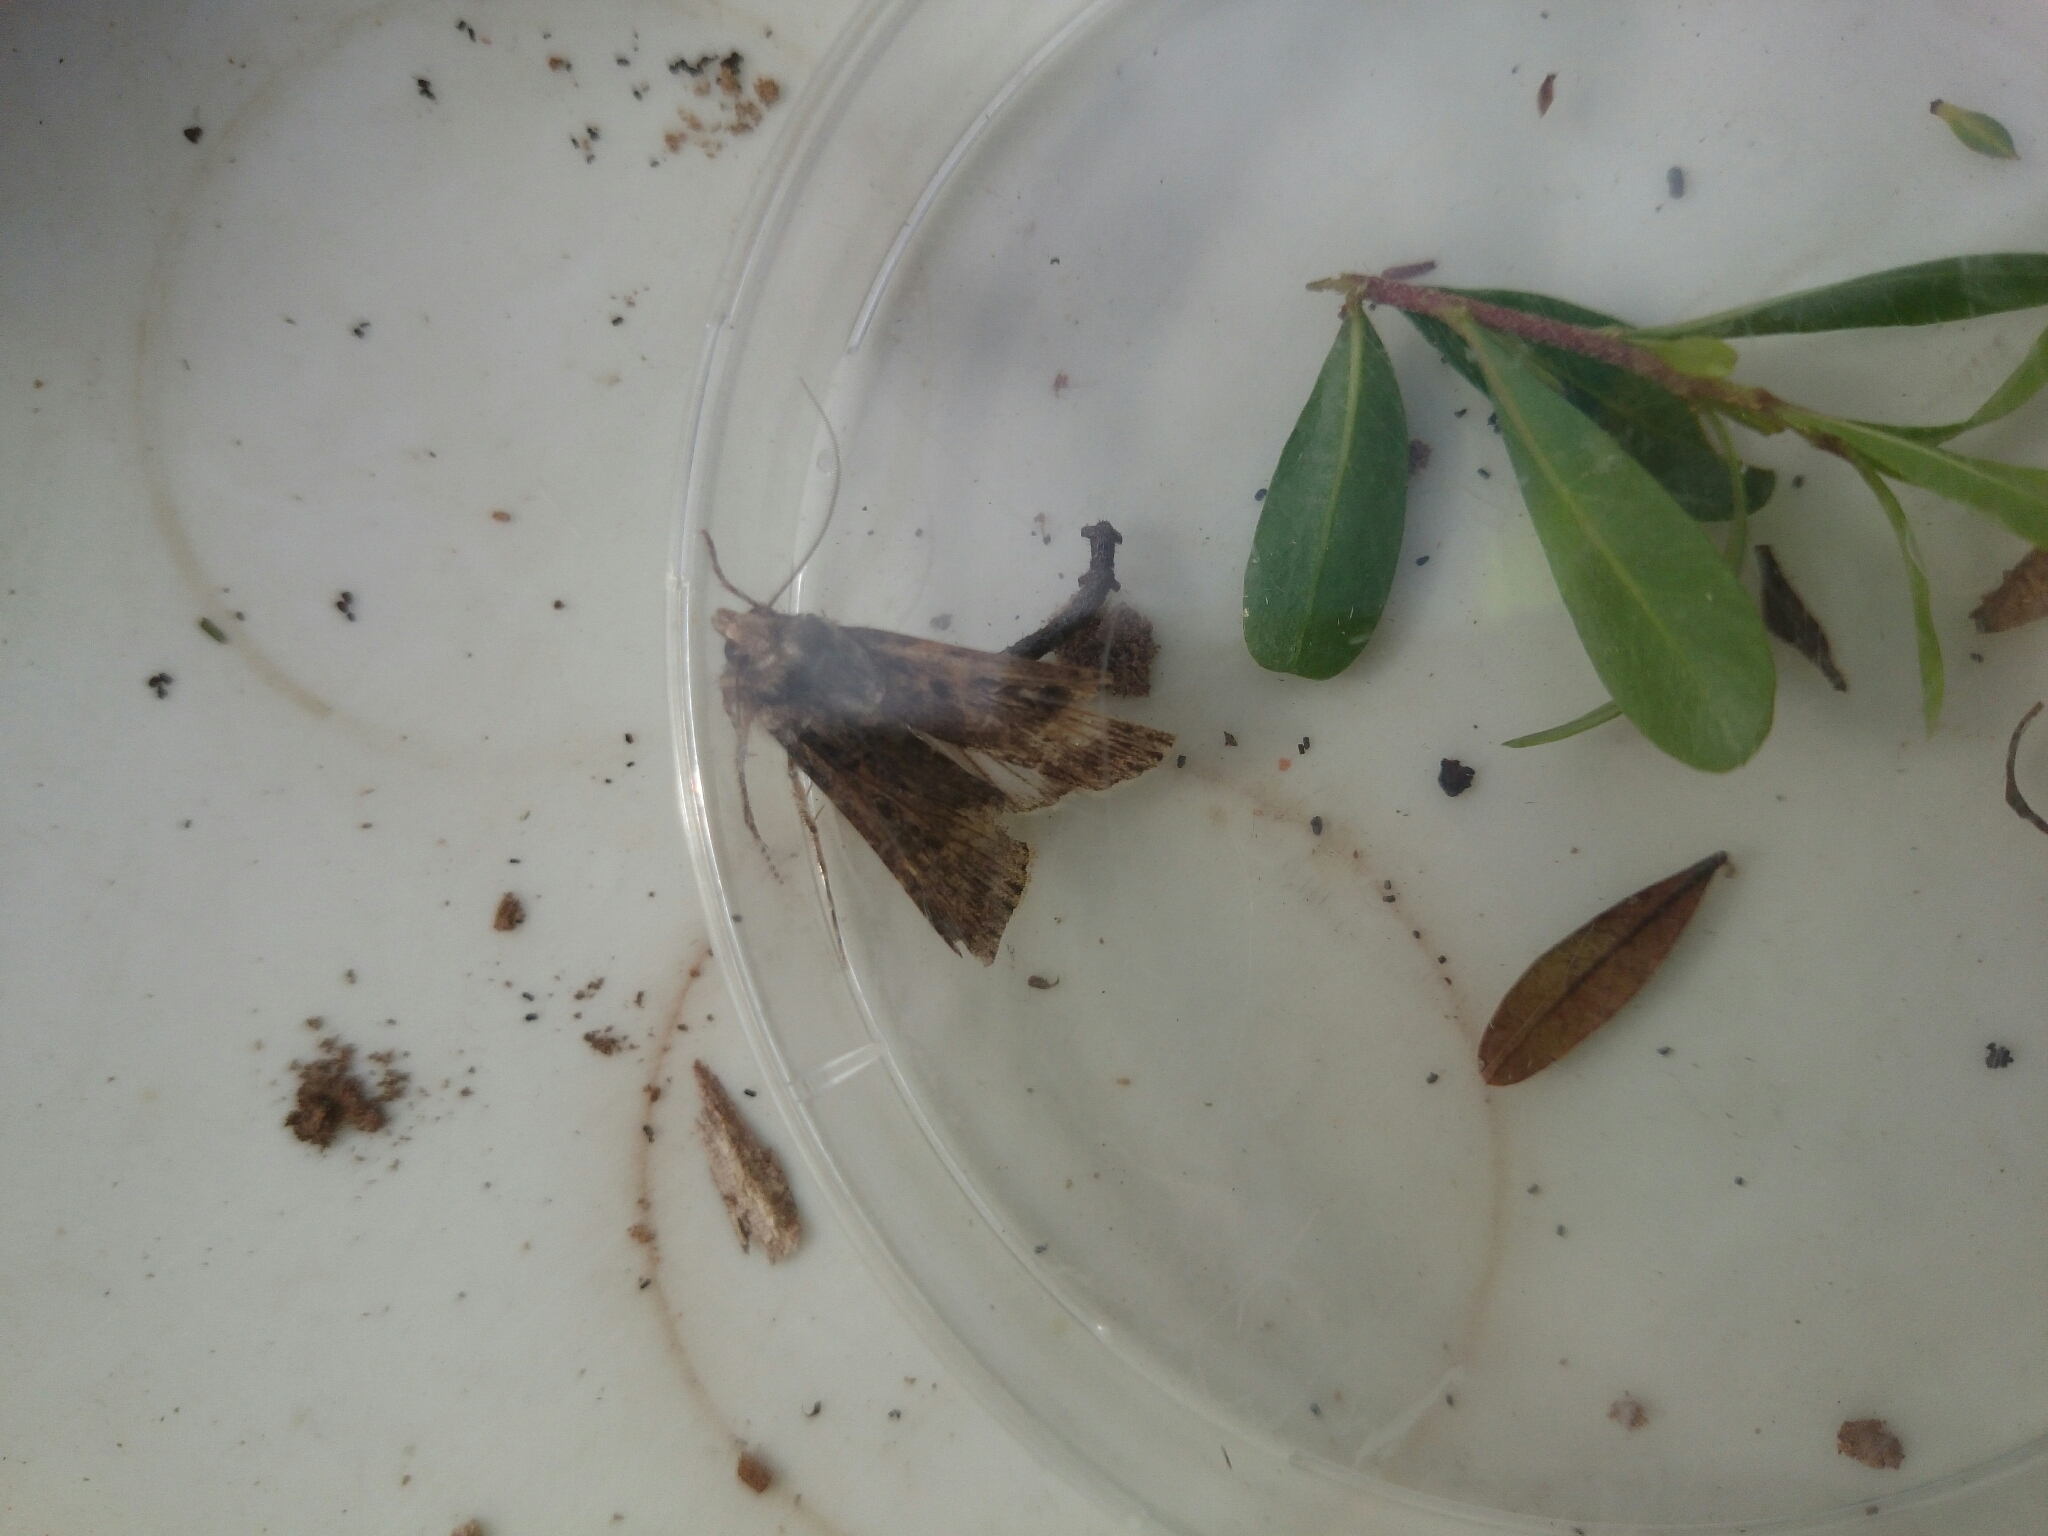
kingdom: Animalia
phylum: Arthropoda
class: Insecta
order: Lepidoptera
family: Noctuidae
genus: Agrotis
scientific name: Agrotis munda
